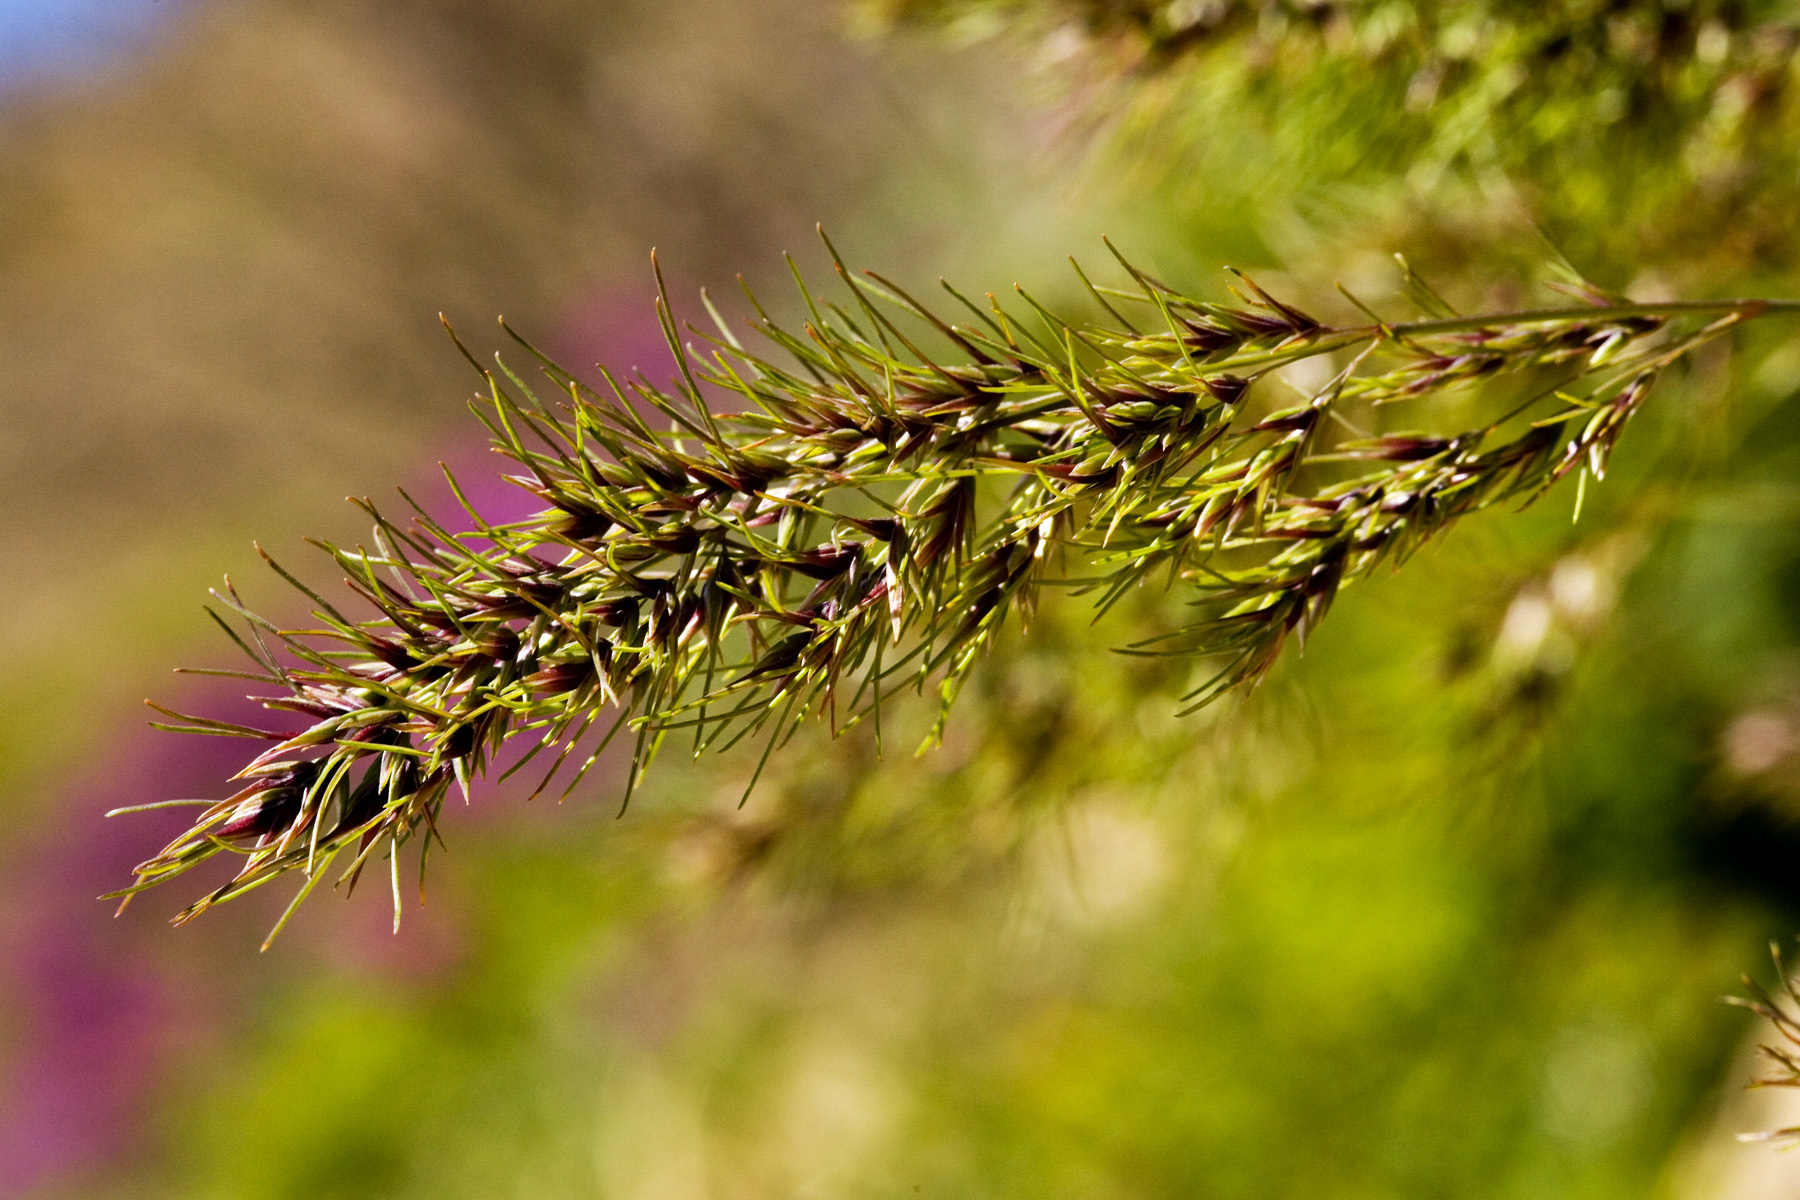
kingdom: Plantae
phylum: Tracheophyta
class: Liliopsida
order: Poales
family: Poaceae
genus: Poa
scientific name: Poa bulbosa
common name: Bulbous bluegrass
